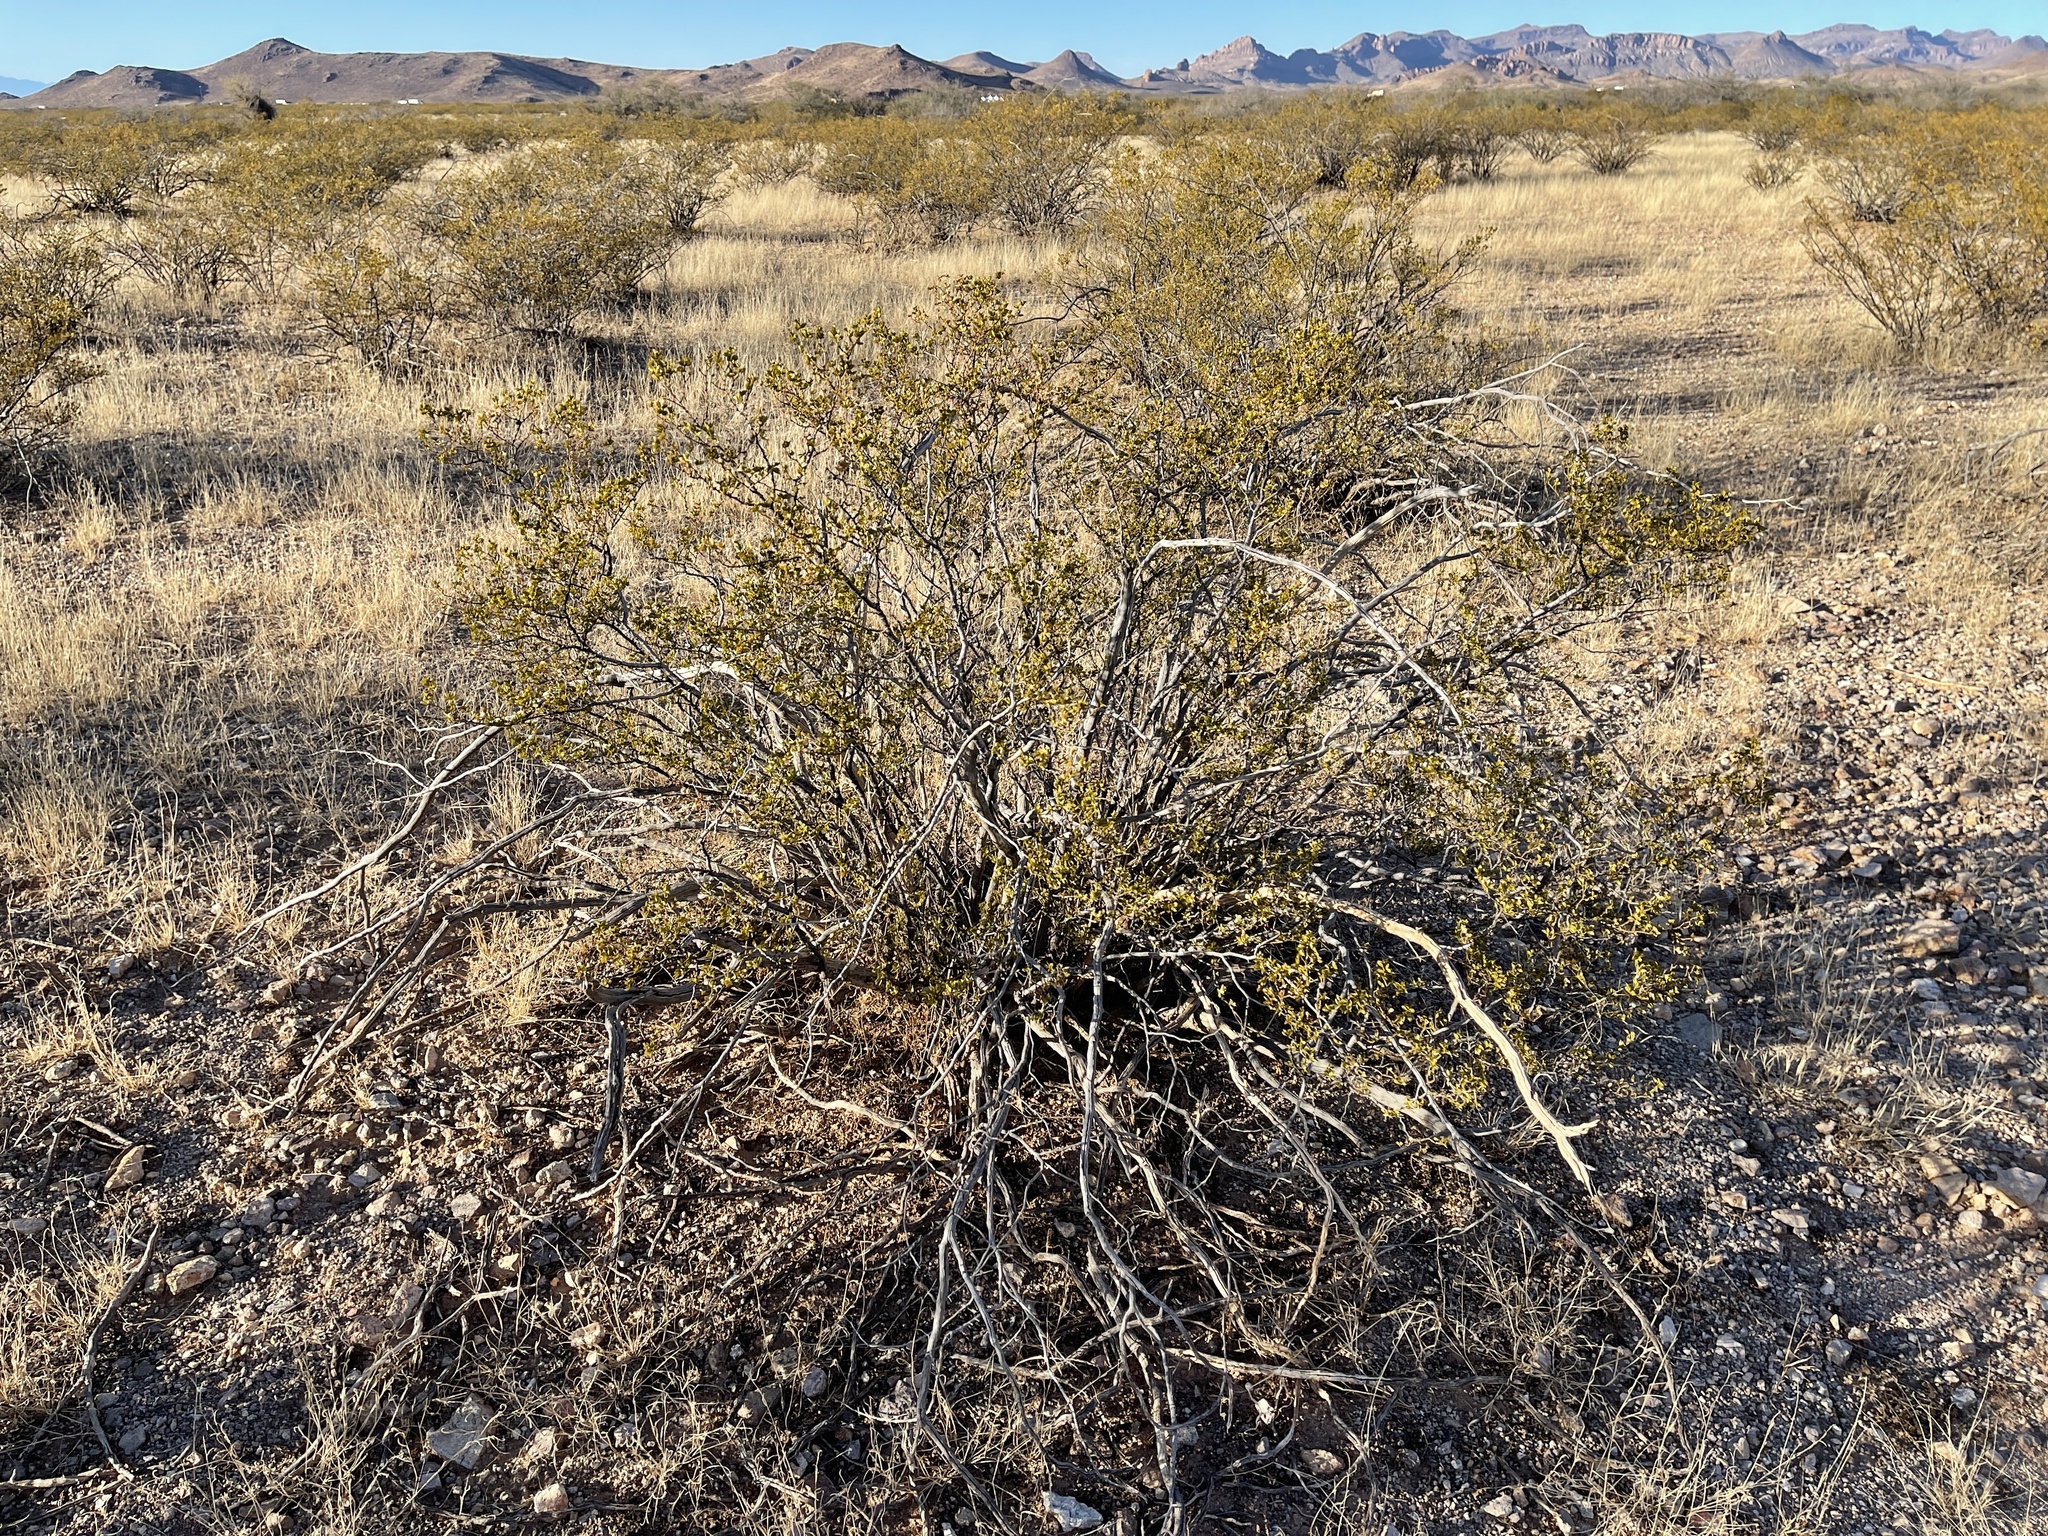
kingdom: Plantae
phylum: Tracheophyta
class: Magnoliopsida
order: Zygophyllales
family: Zygophyllaceae
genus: Larrea
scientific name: Larrea tridentata
